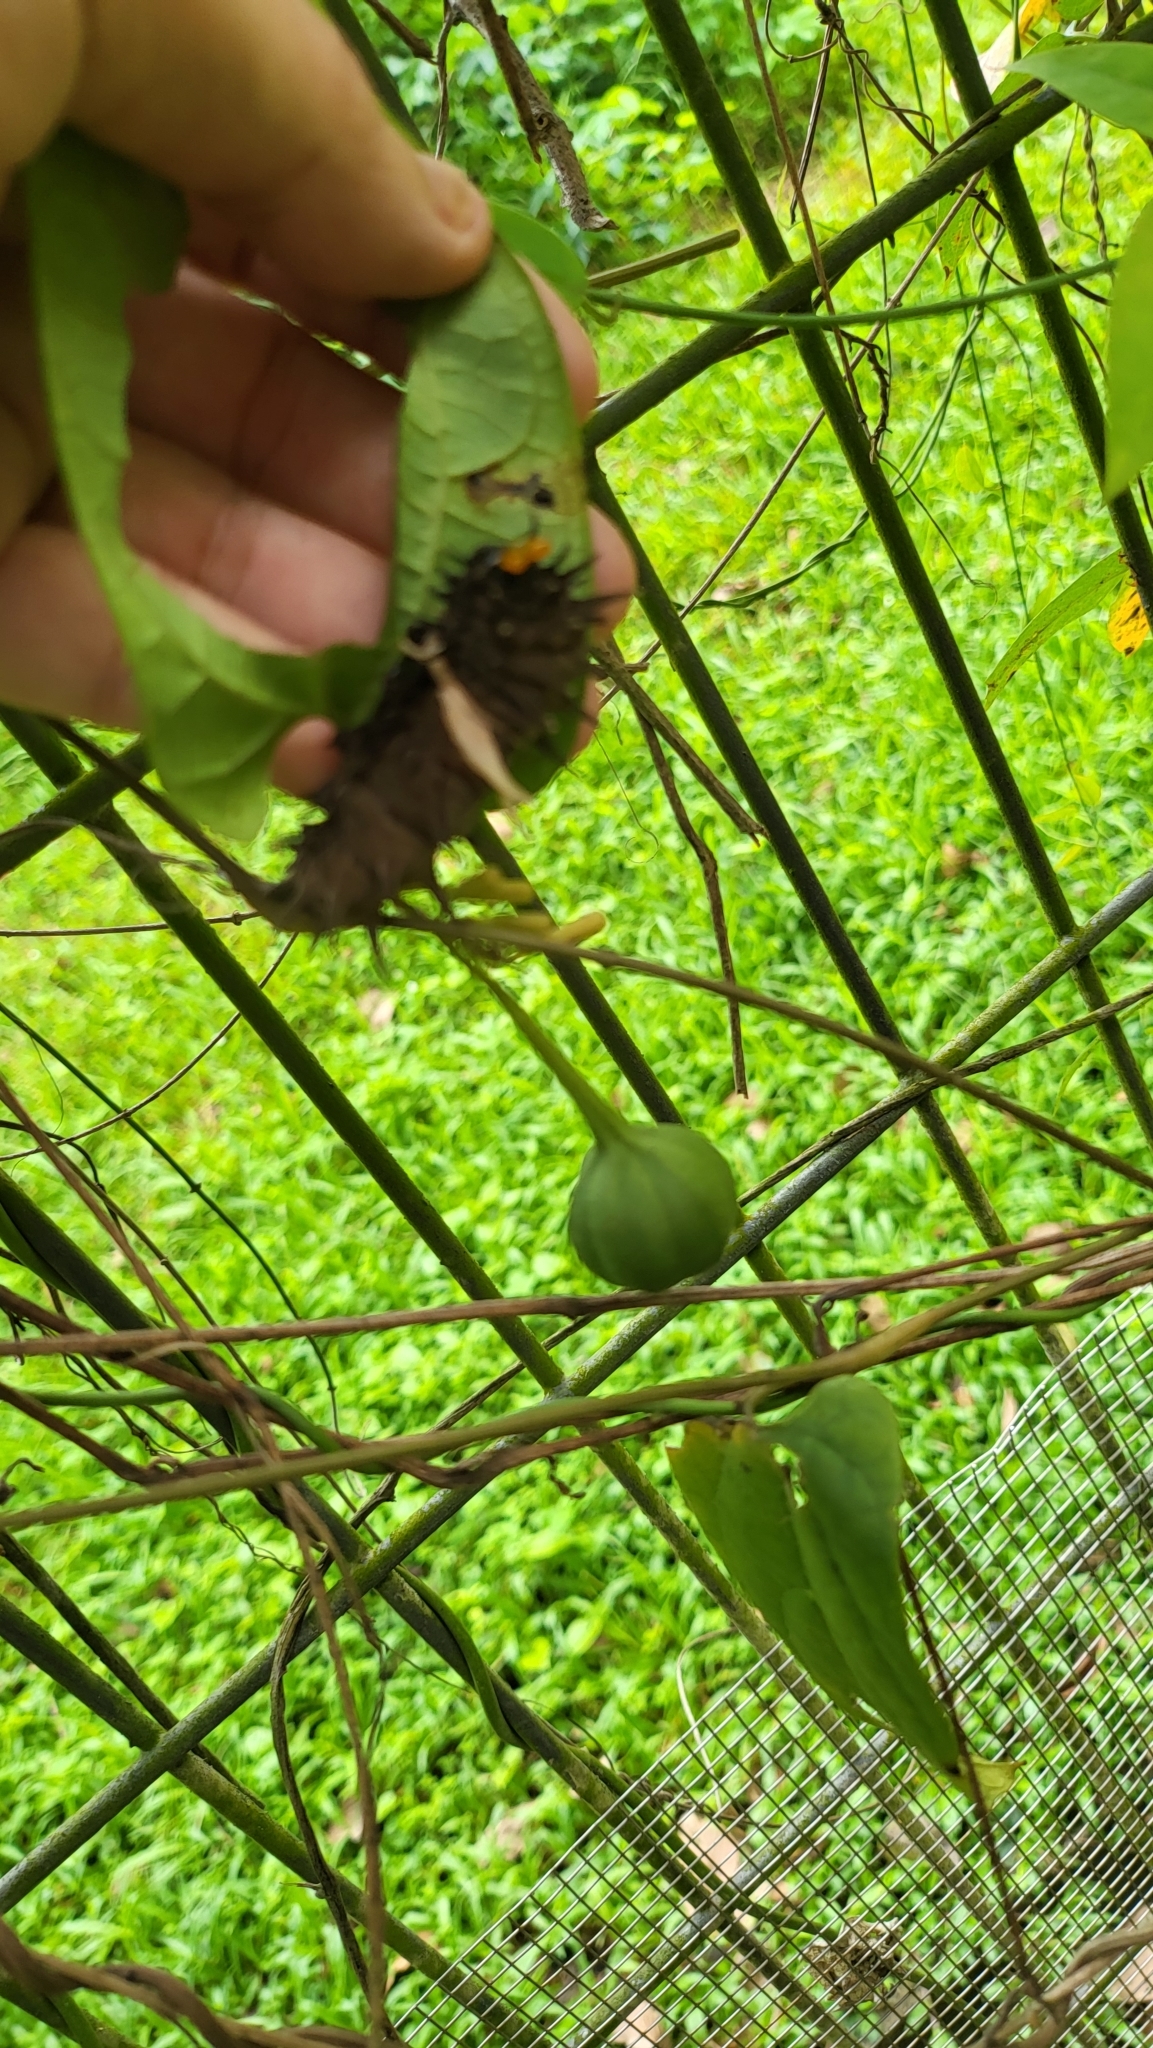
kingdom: Animalia
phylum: Arthropoda
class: Insecta
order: Lepidoptera
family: Papilionidae
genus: Troides
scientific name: Troides helena
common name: Common birdwing
